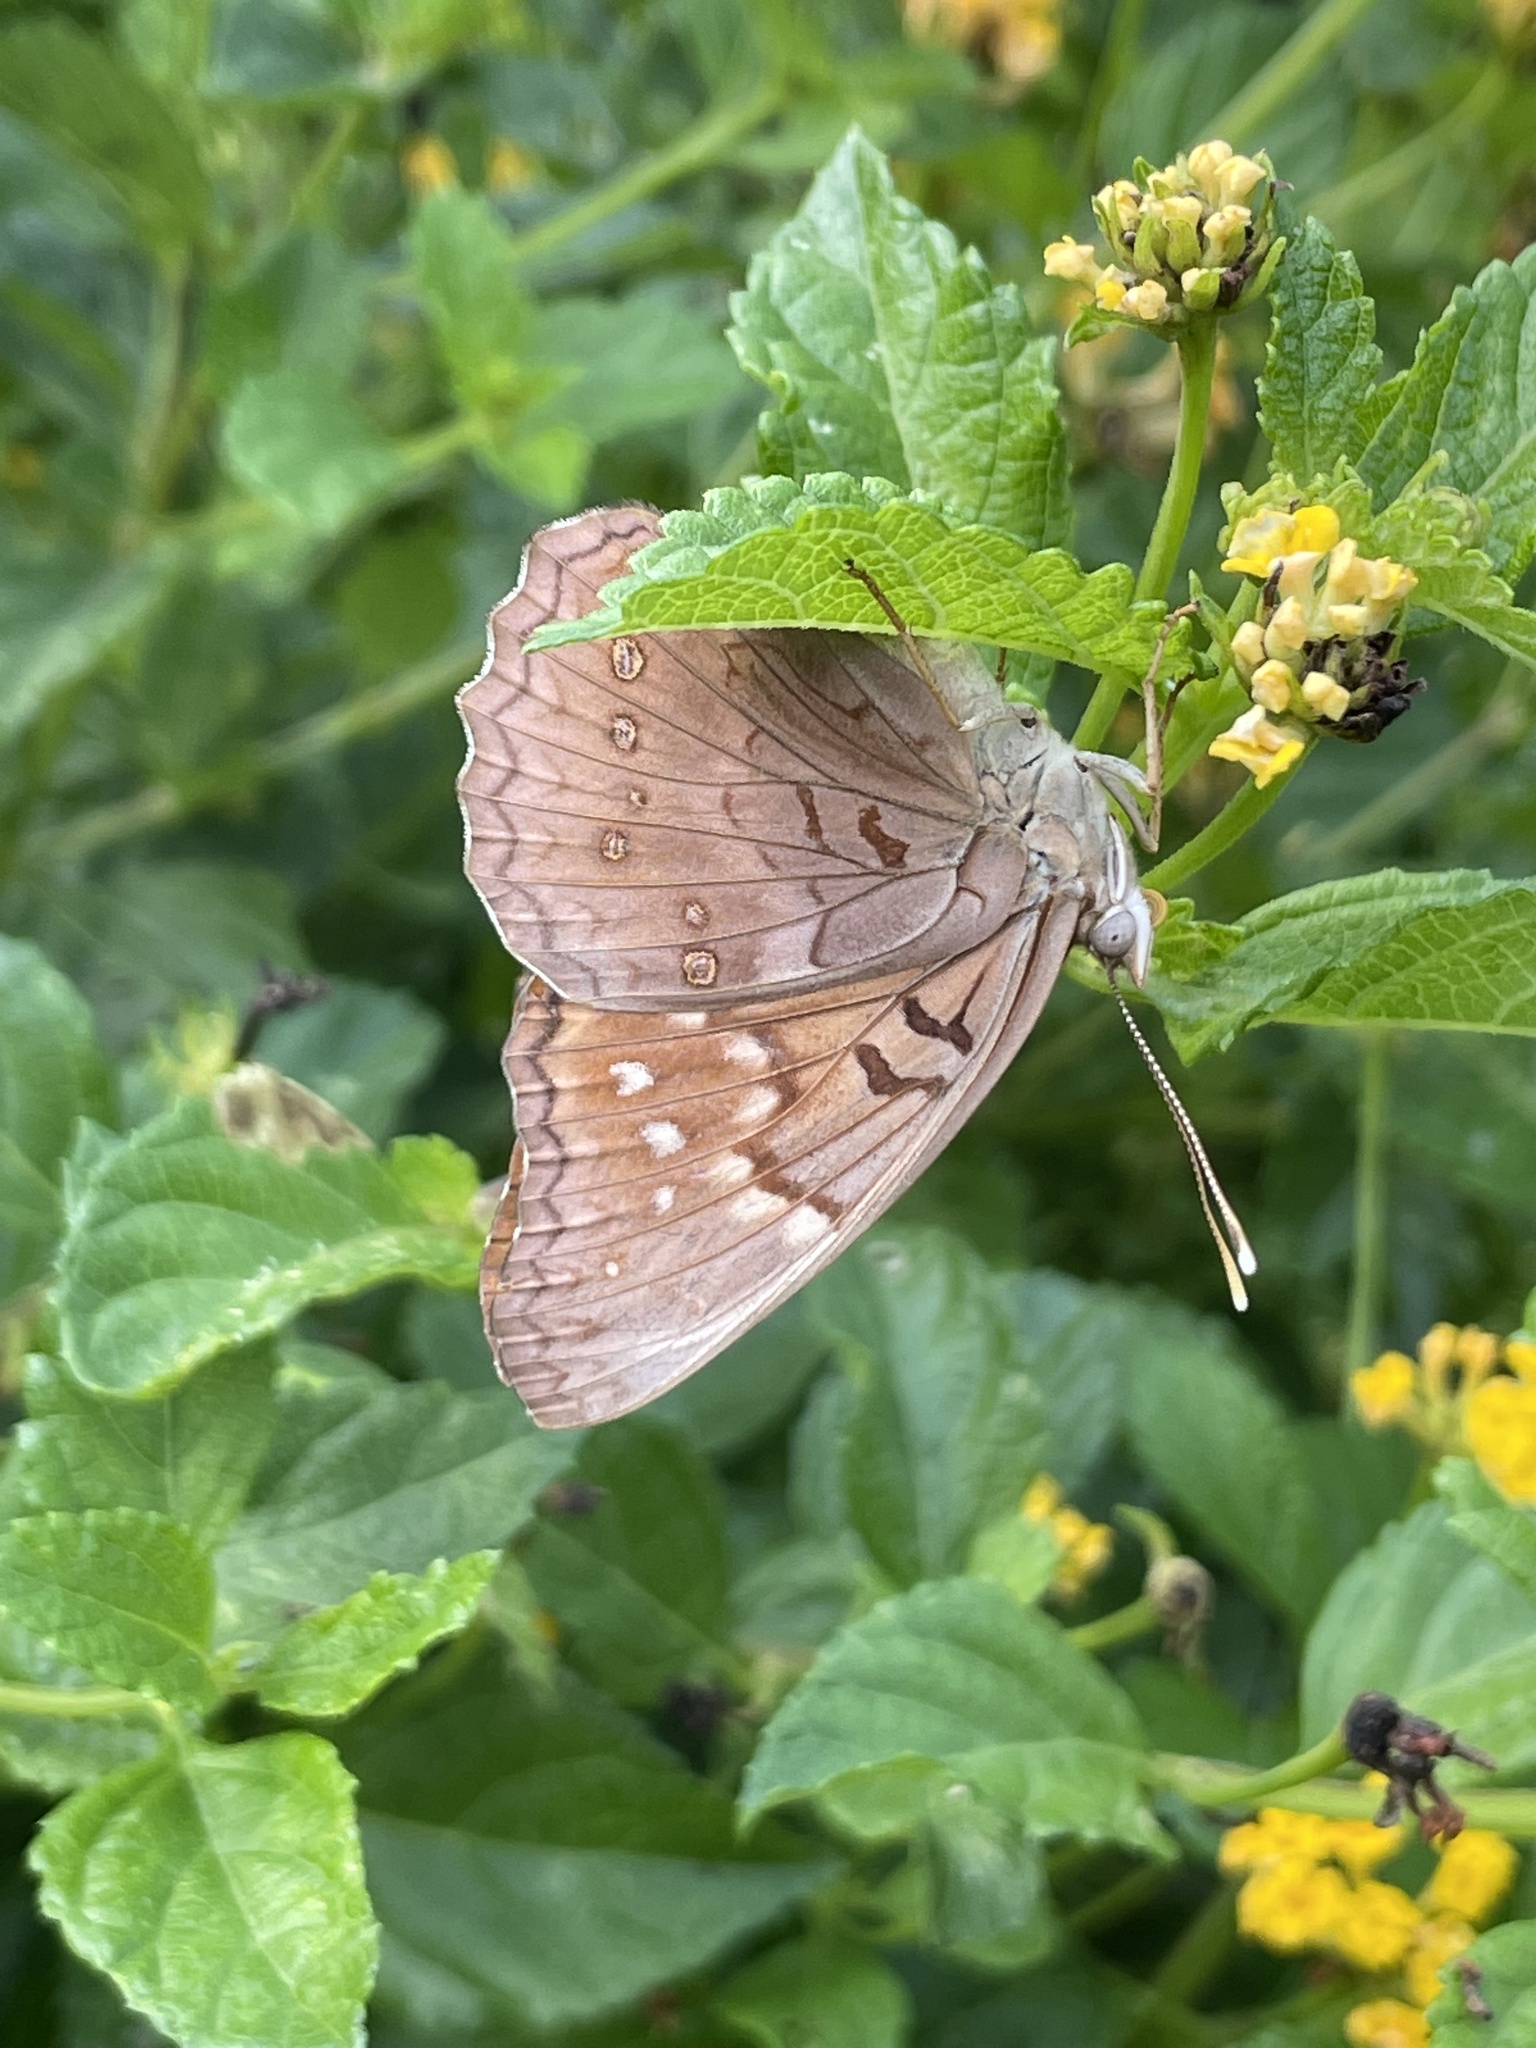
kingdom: Animalia
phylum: Arthropoda
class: Insecta
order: Lepidoptera
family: Nymphalidae
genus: Asterocampa
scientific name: Asterocampa clyton
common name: Tawny emperor
